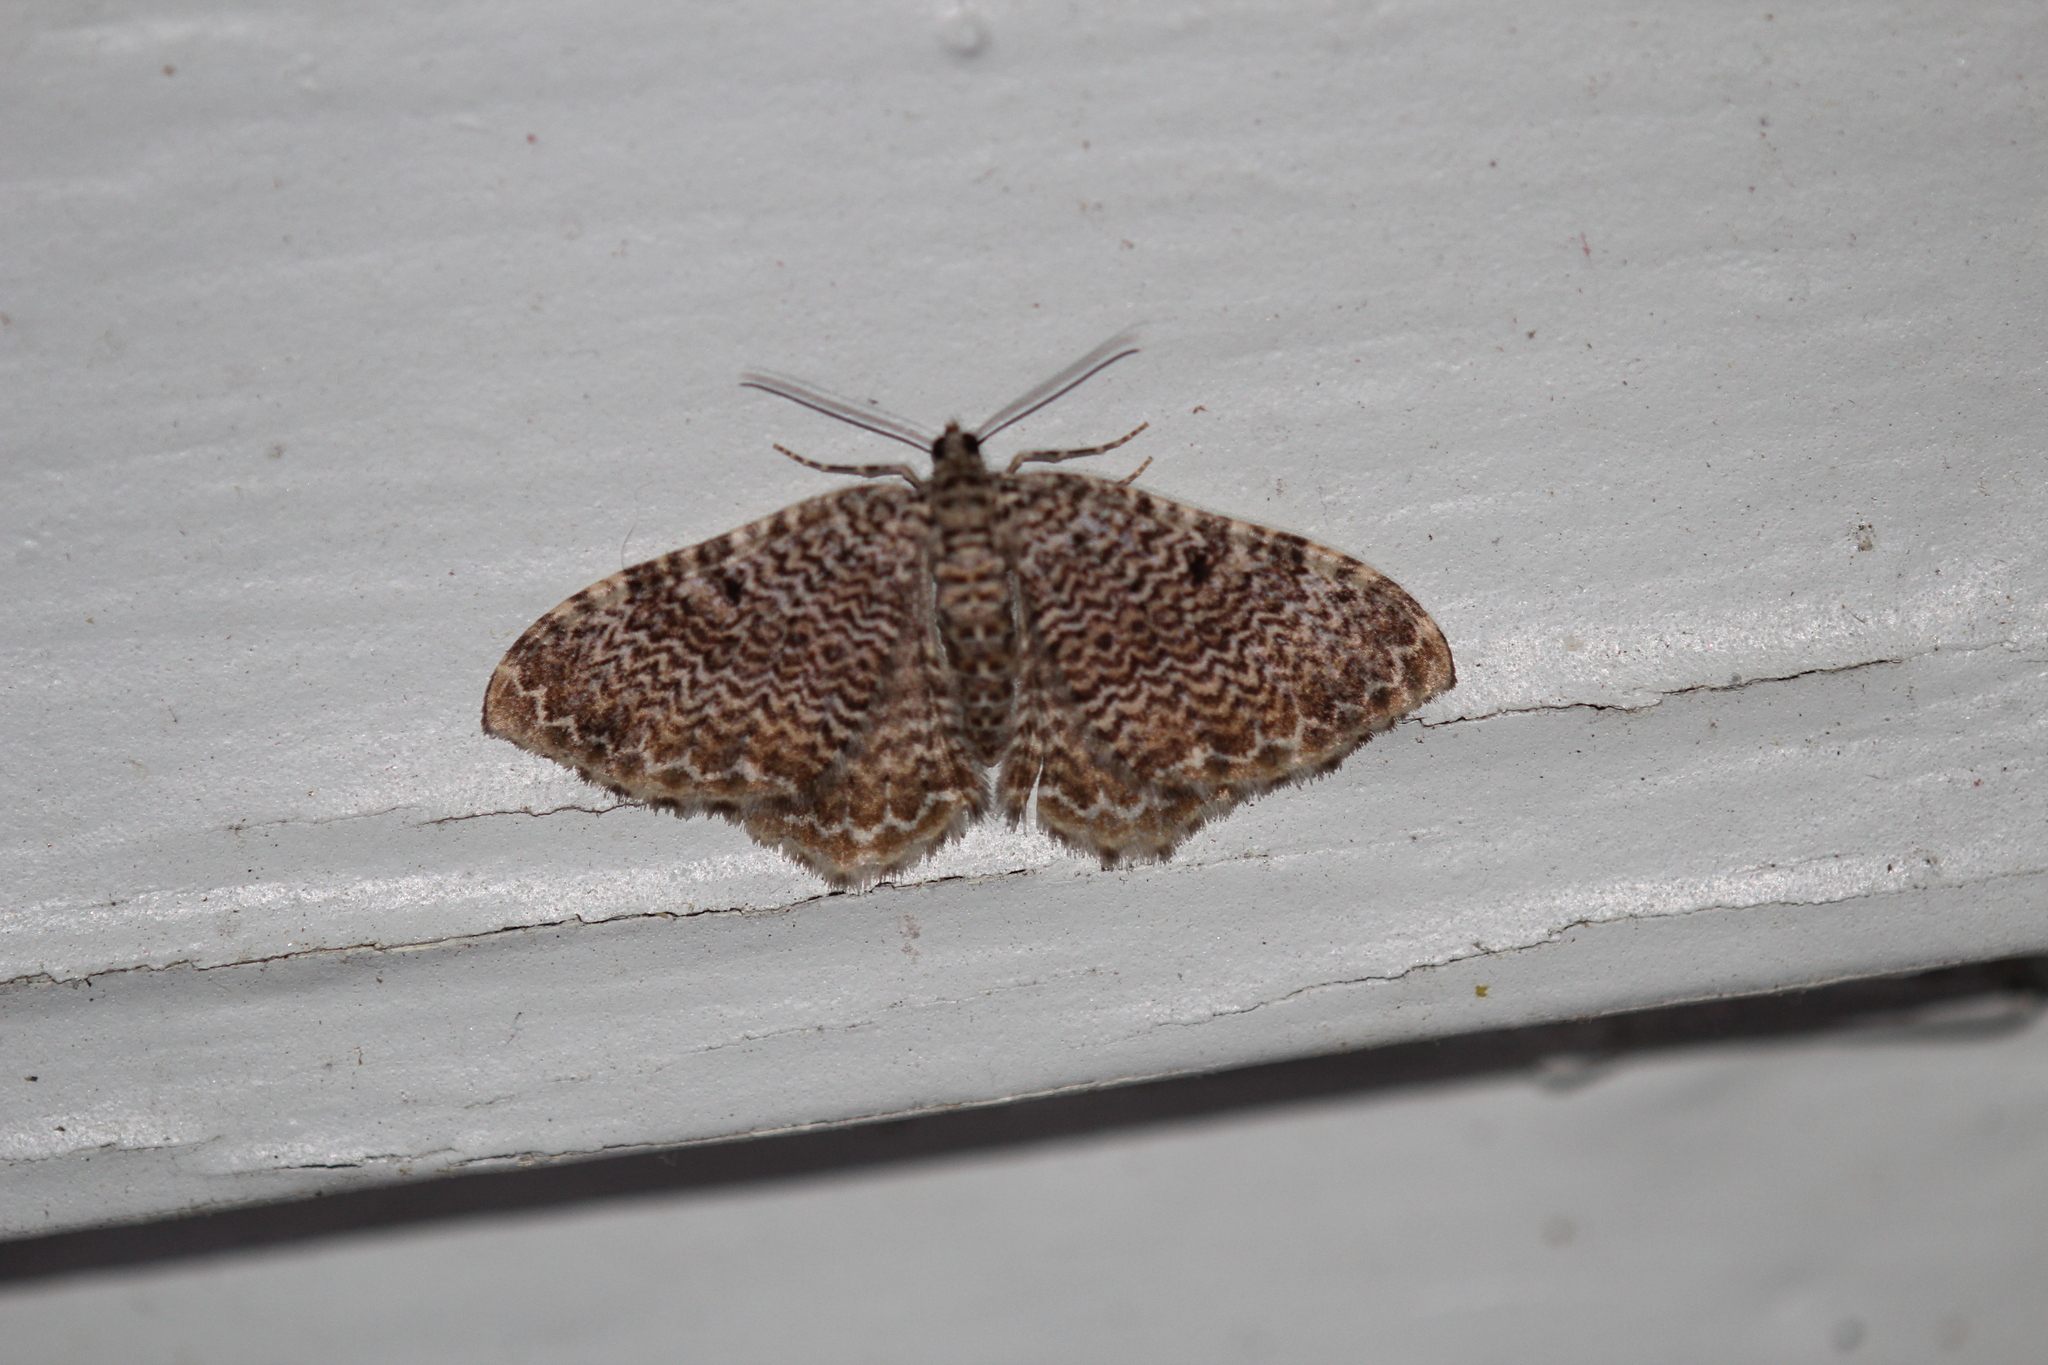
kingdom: Animalia
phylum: Arthropoda
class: Insecta
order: Lepidoptera
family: Geometridae
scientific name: Geometridae
